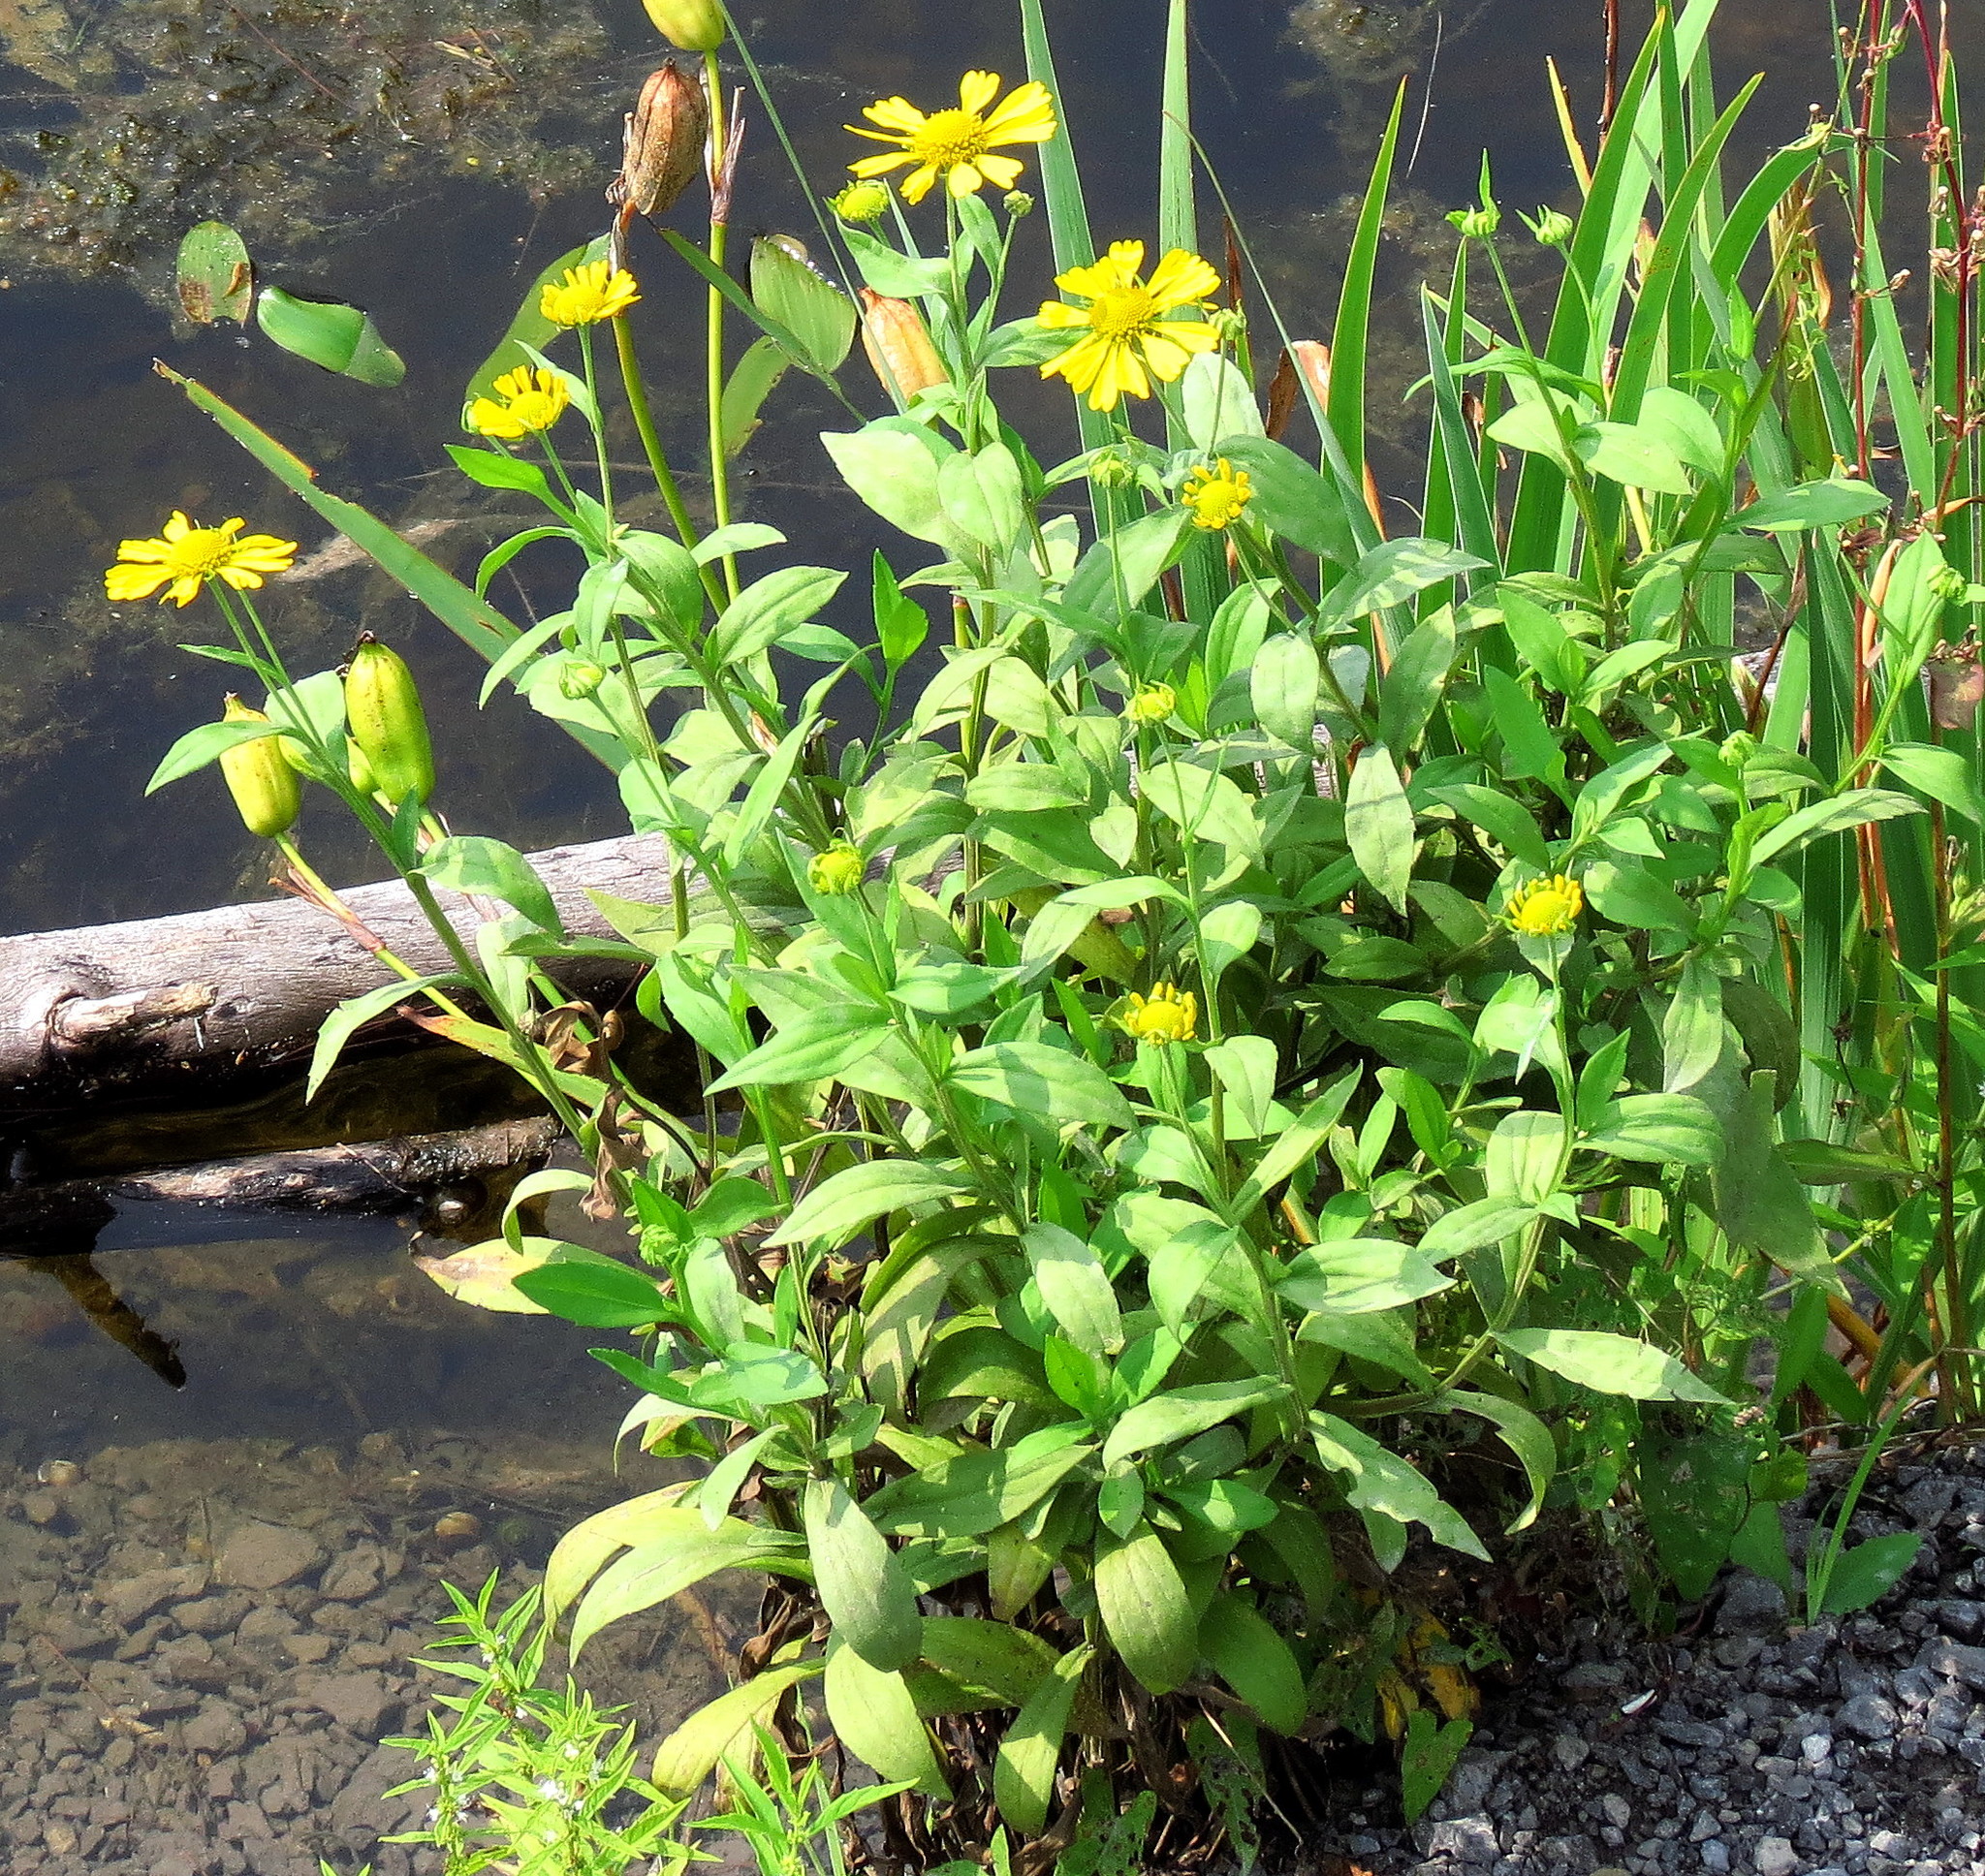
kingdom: Plantae
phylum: Tracheophyta
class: Magnoliopsida
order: Asterales
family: Asteraceae
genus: Helenium
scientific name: Helenium autumnale
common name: Sneezeweed
